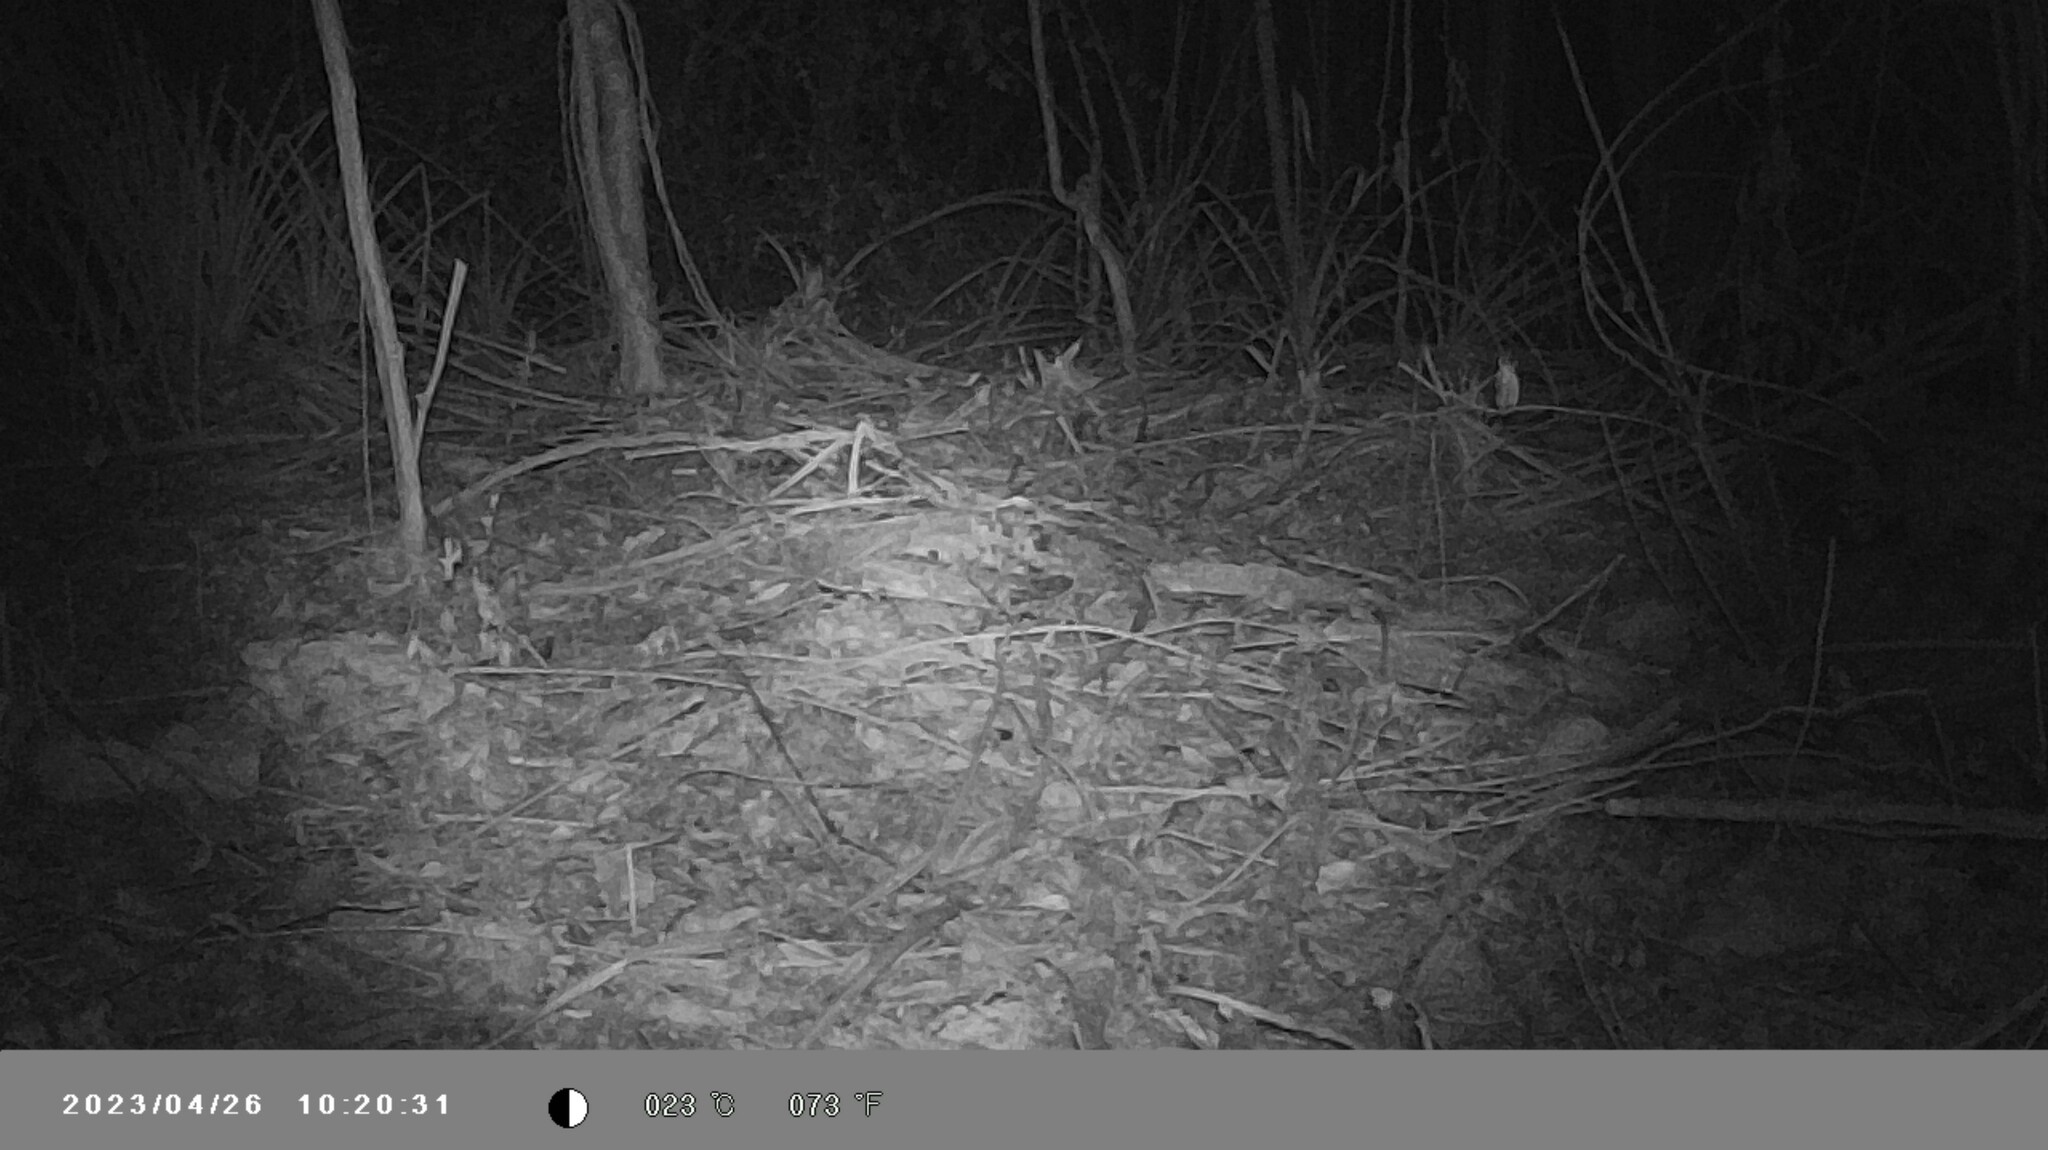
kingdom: Animalia
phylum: Chordata
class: Mammalia
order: Carnivora
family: Felidae
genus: Leopardus
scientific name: Leopardus wiedii
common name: Margay
